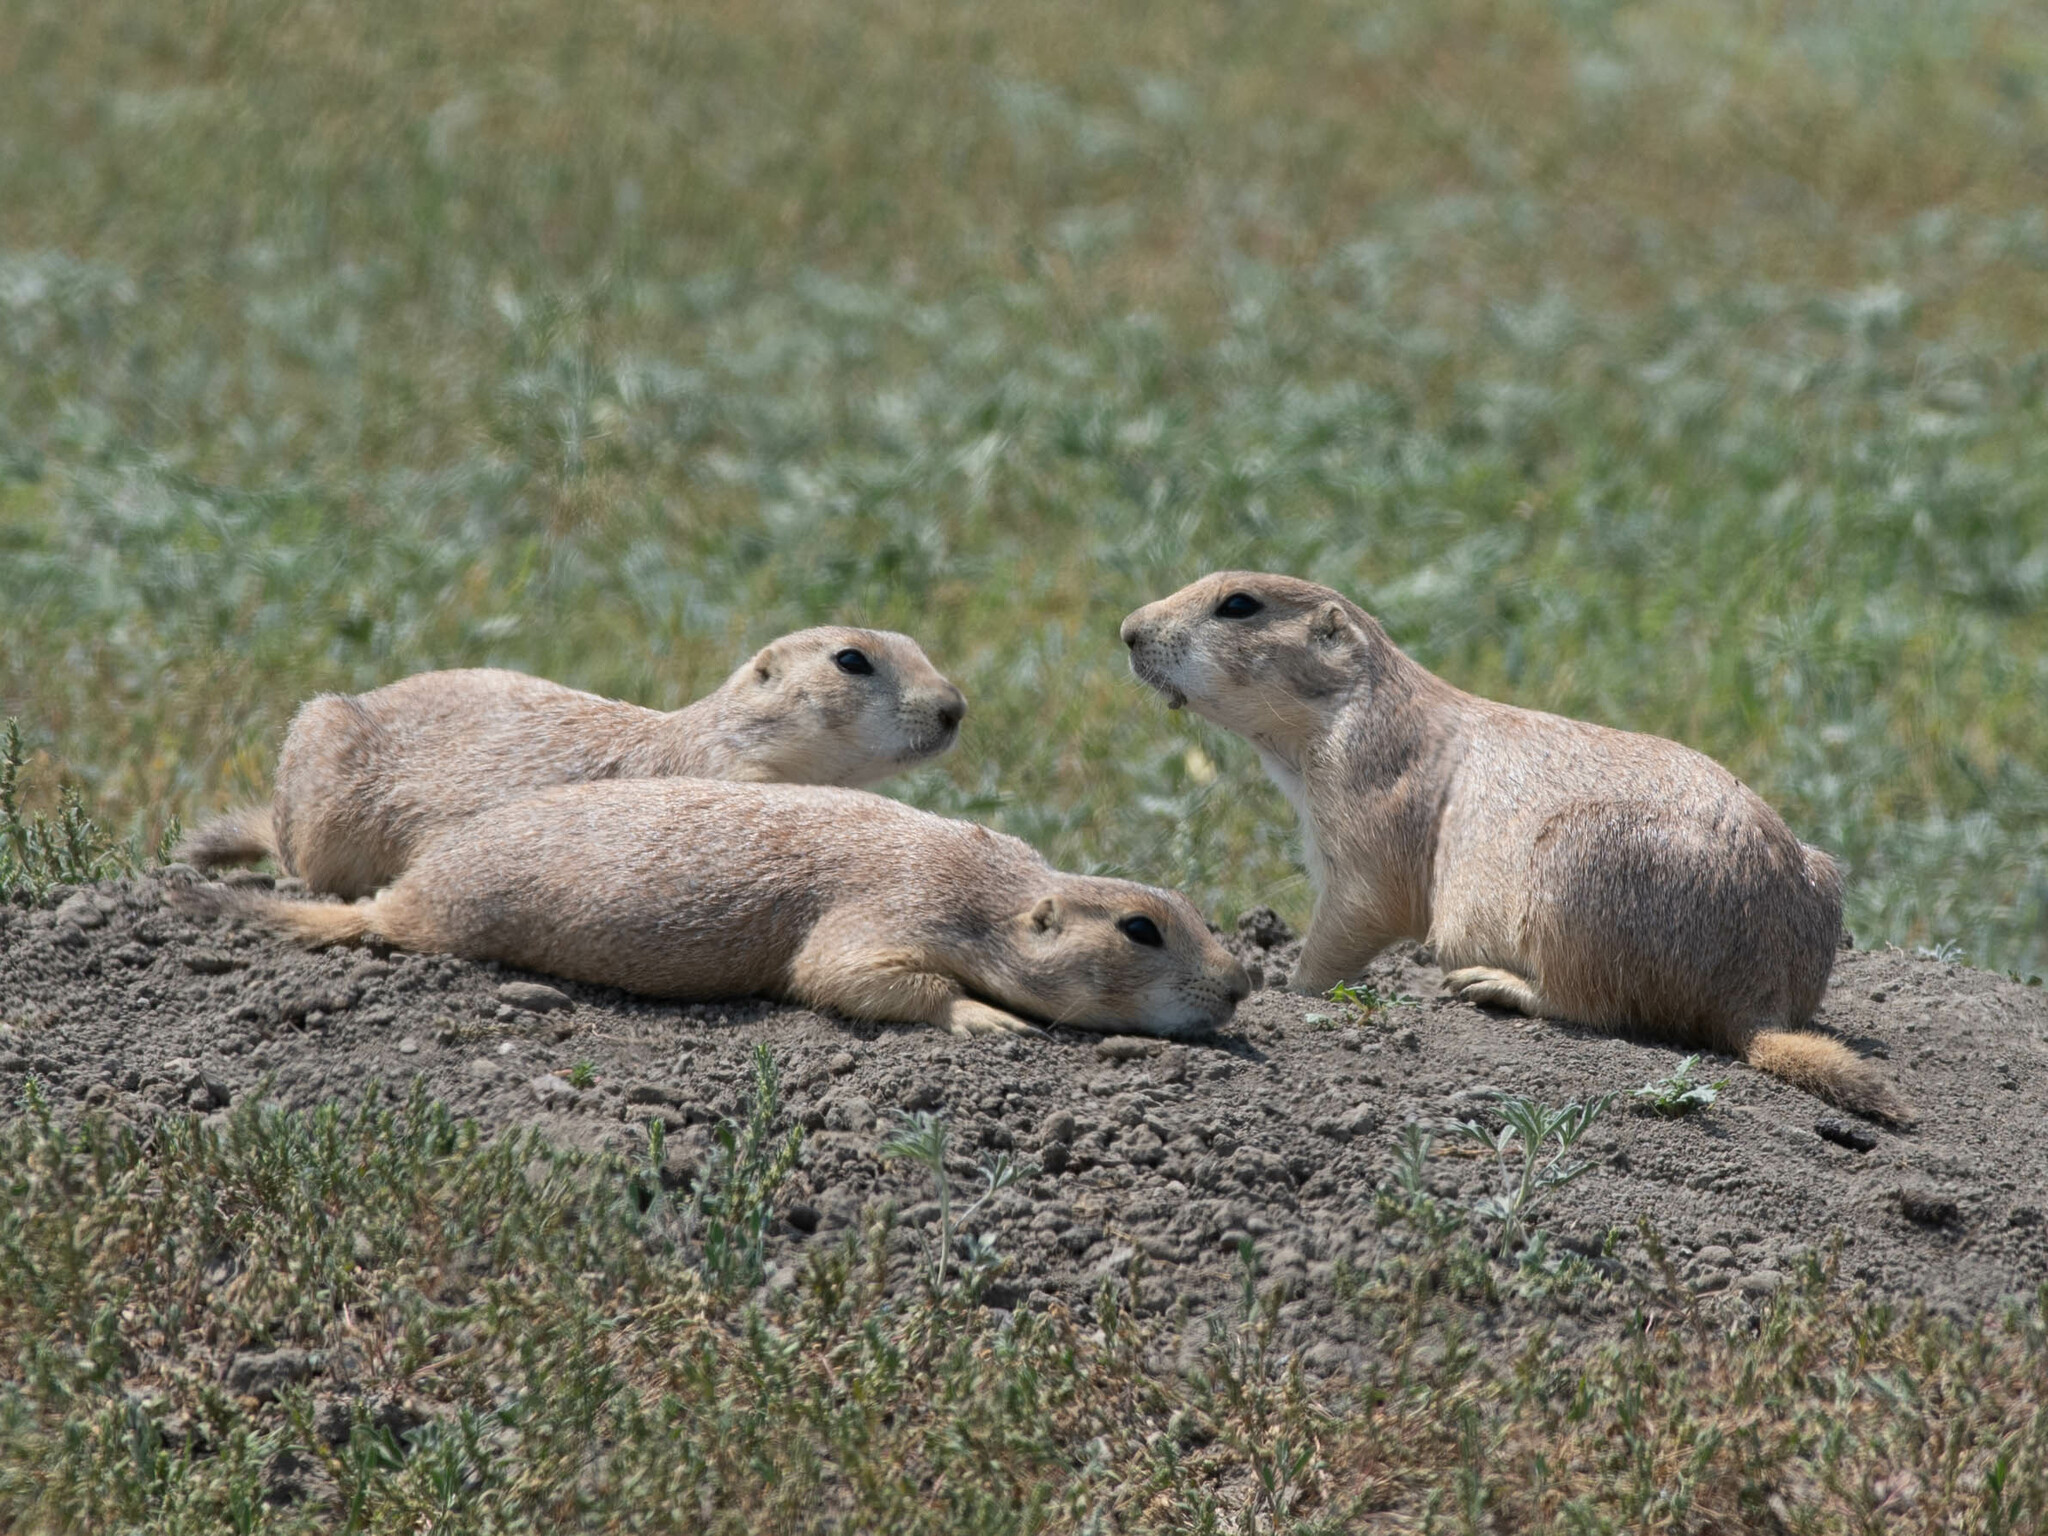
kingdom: Animalia
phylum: Chordata
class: Mammalia
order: Rodentia
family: Sciuridae
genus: Cynomys
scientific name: Cynomys ludovicianus
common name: Black-tailed prairie dog
